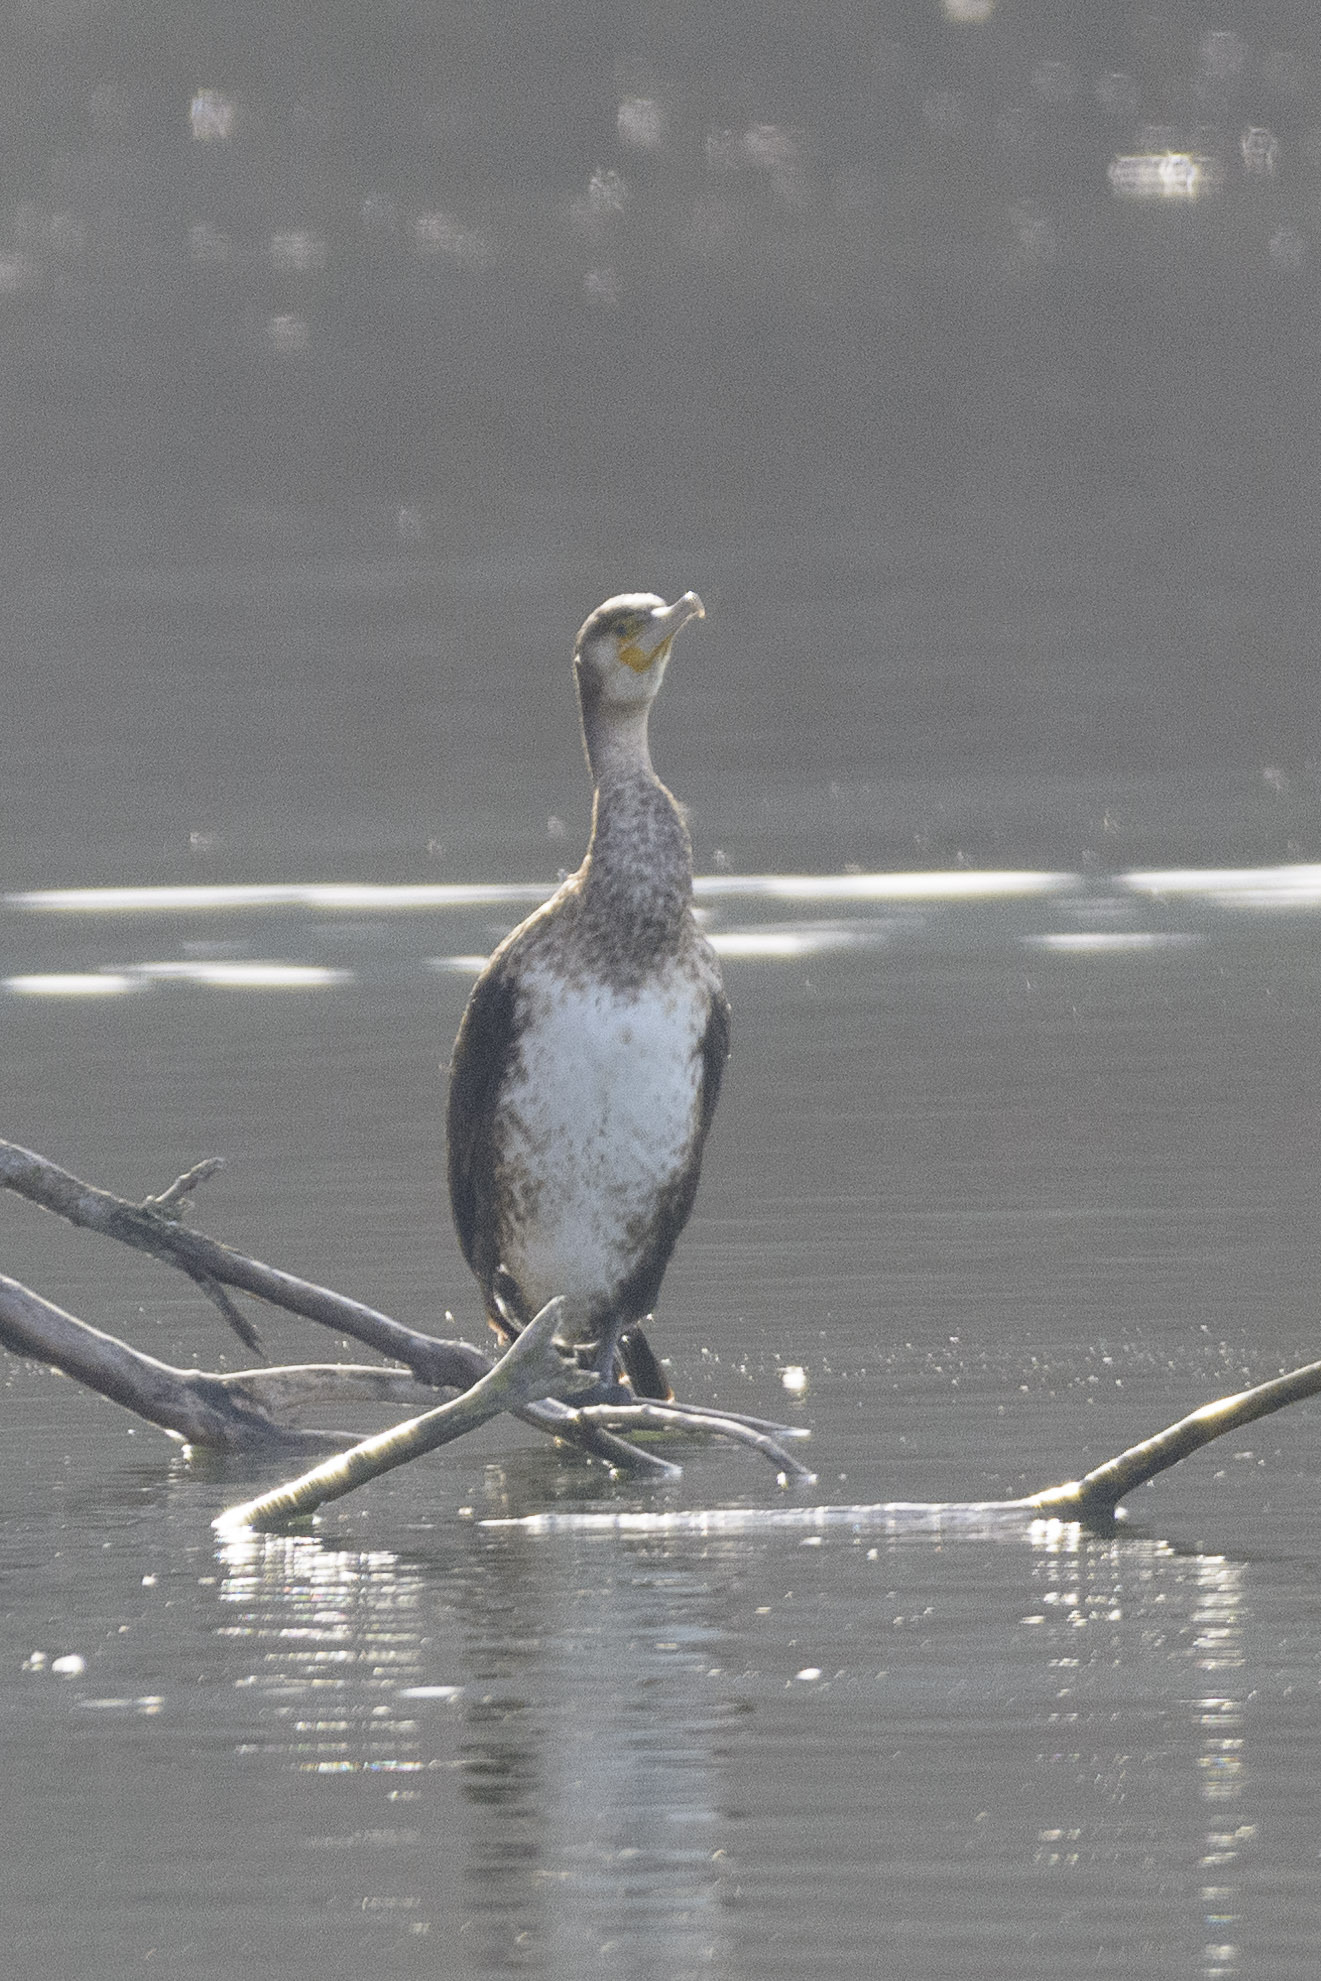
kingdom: Animalia
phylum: Chordata
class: Aves
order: Suliformes
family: Phalacrocoracidae
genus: Phalacrocorax
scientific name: Phalacrocorax carbo
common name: Great cormorant
